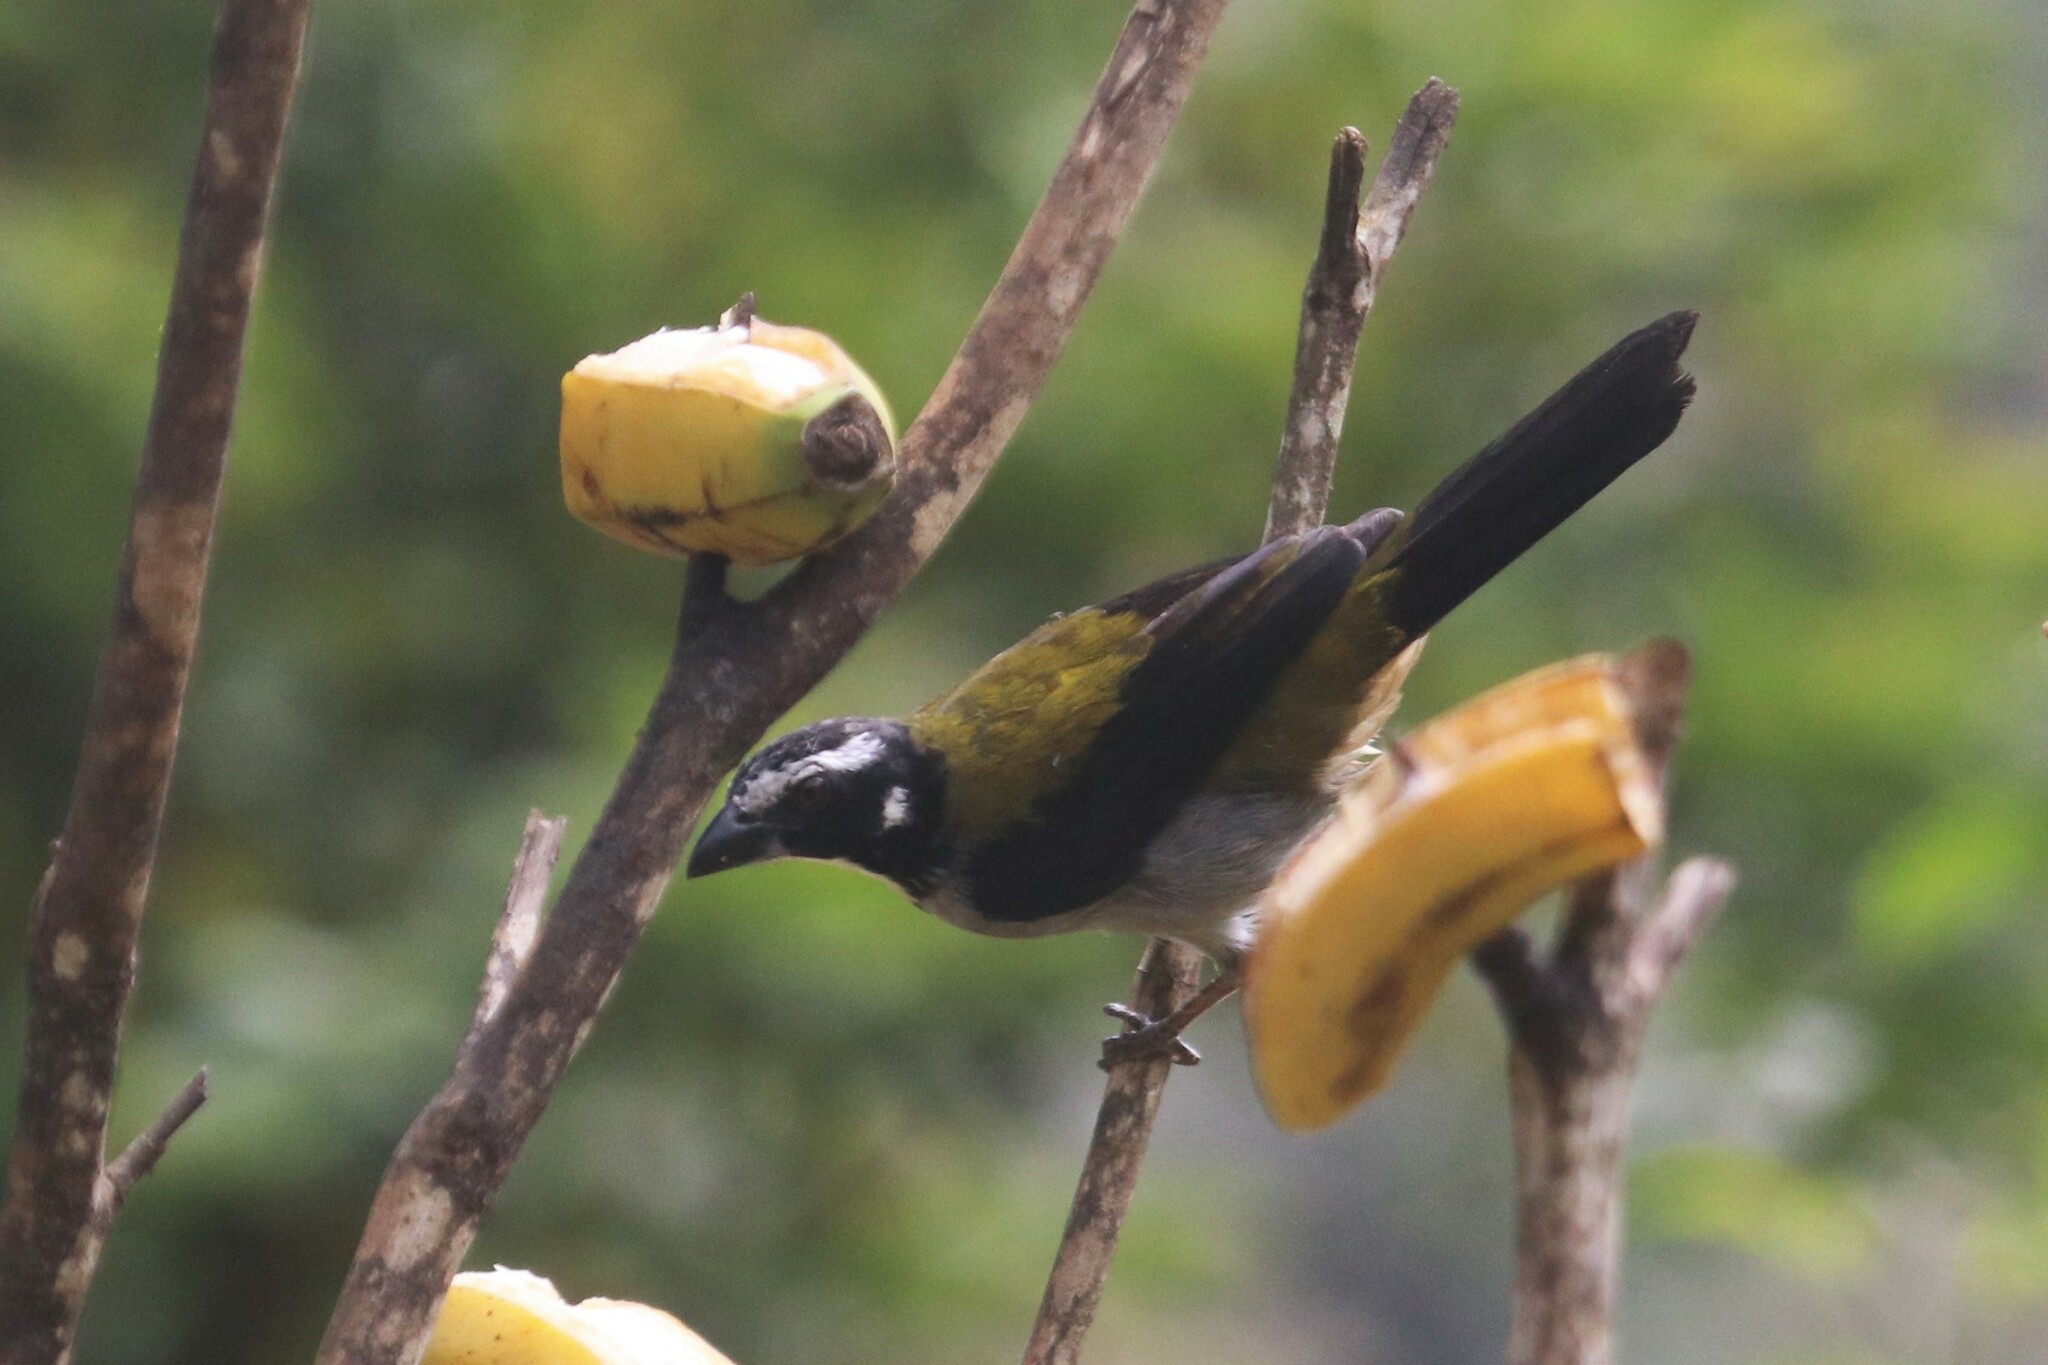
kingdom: Animalia
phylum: Chordata
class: Aves
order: Passeriformes
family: Thraupidae
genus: Saltator
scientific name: Saltator atripennis
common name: Black-winged saltator
